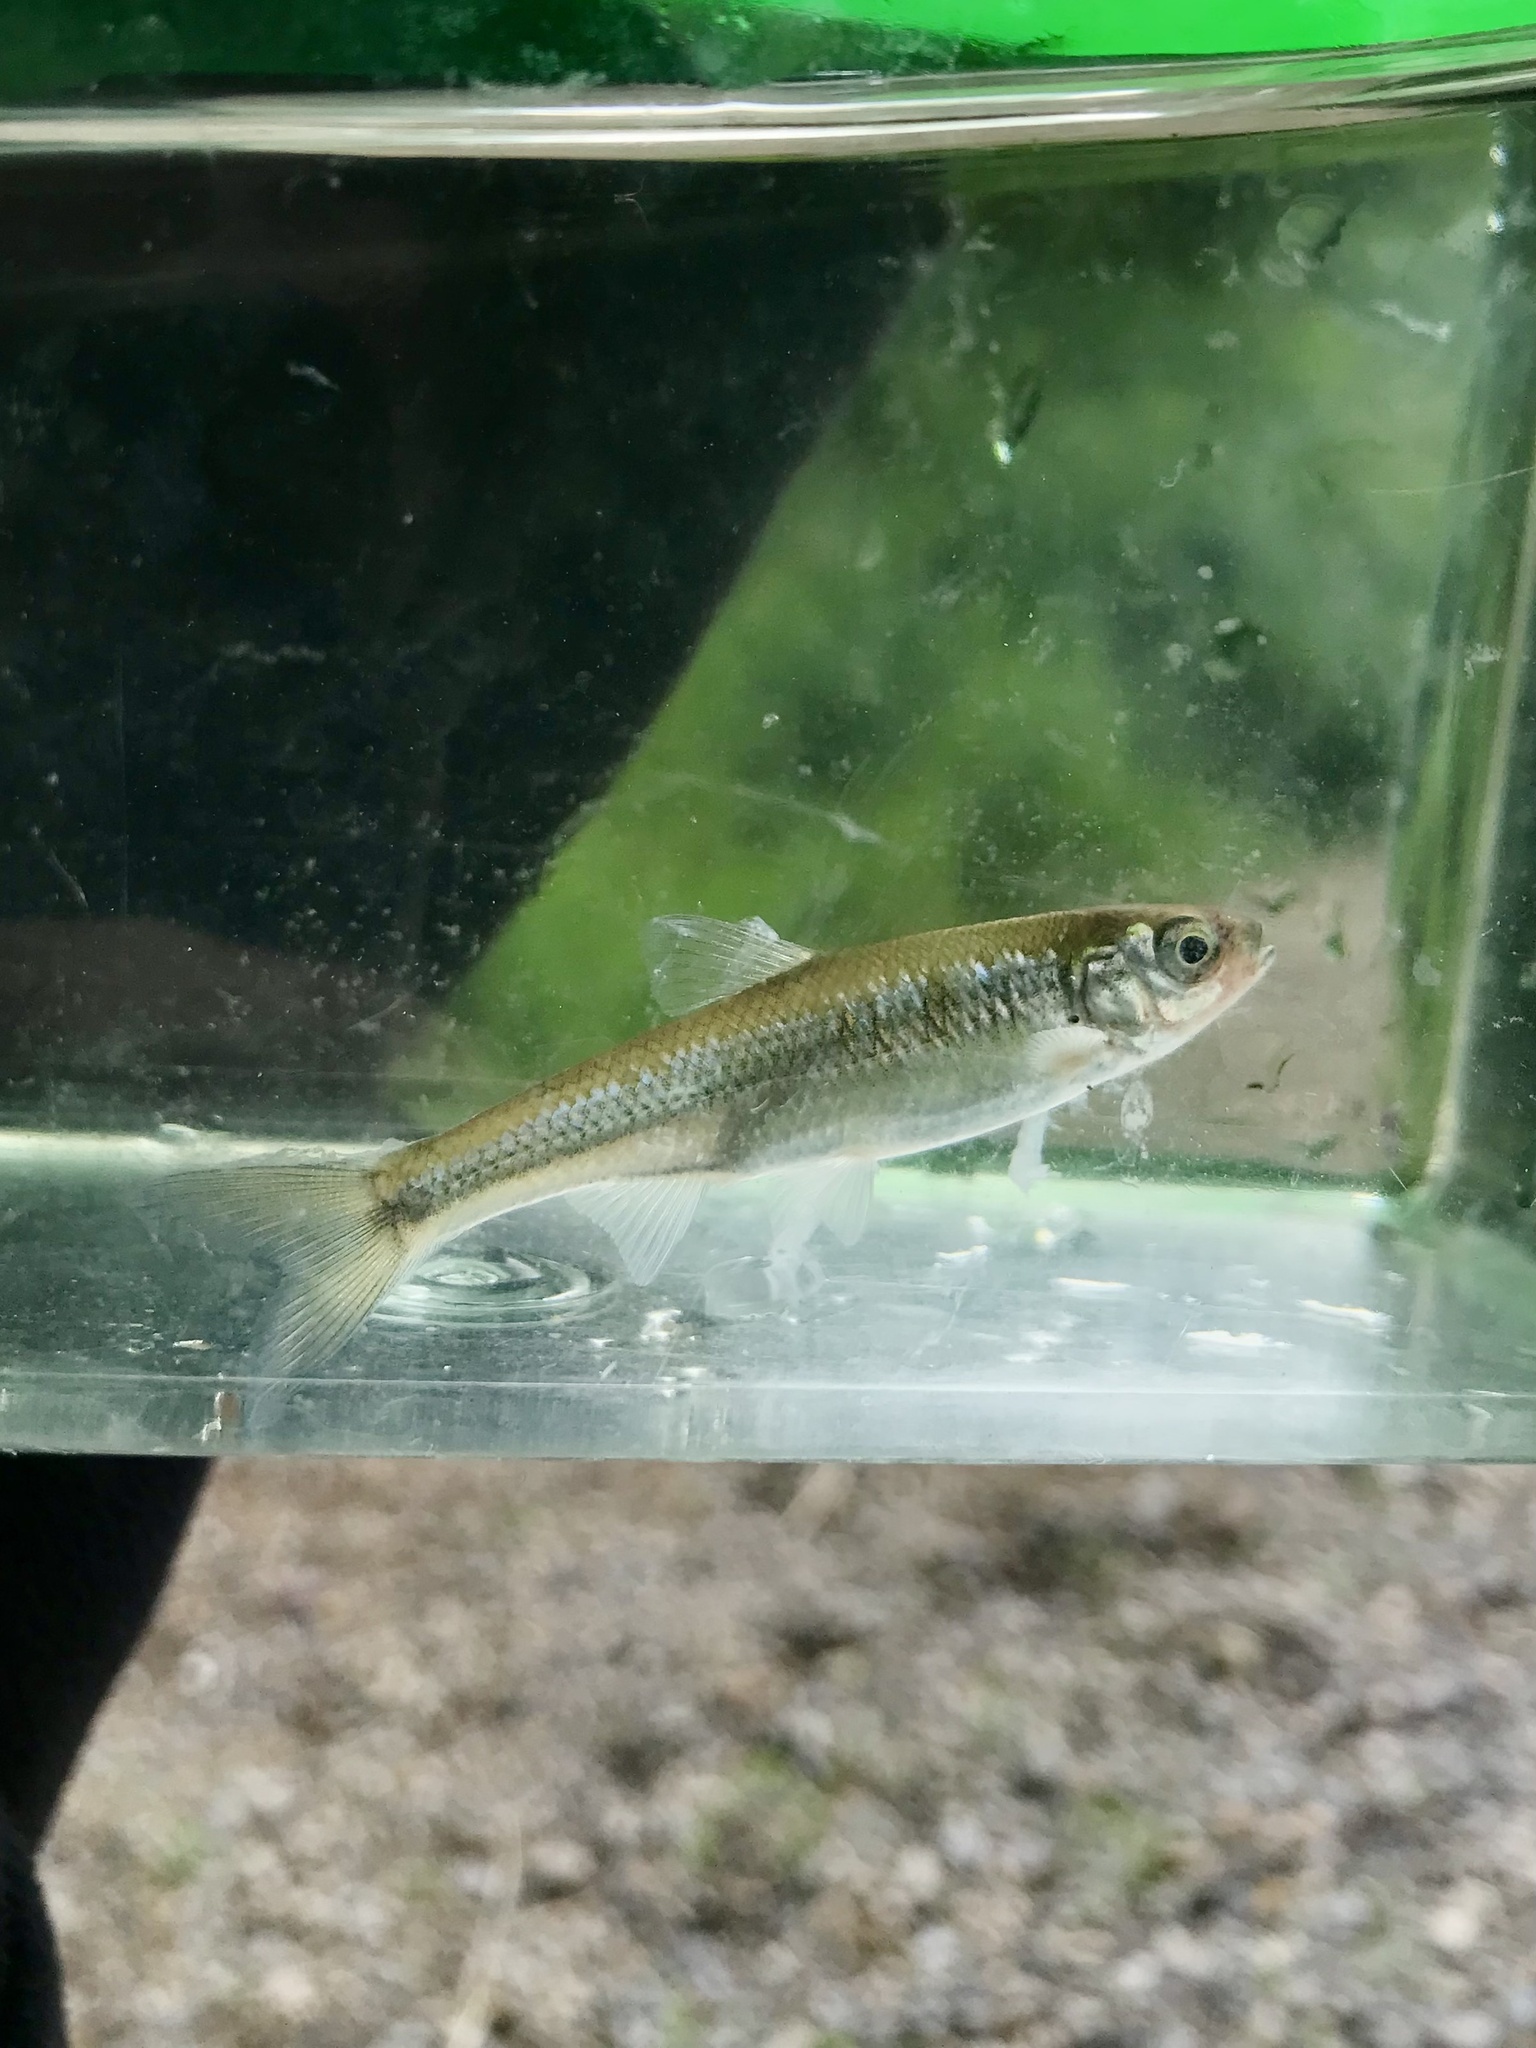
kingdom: Animalia
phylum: Chordata
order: Cypriniformes
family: Cyprinidae
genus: Luxilus
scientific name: Luxilus cornutus
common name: Common shiner
